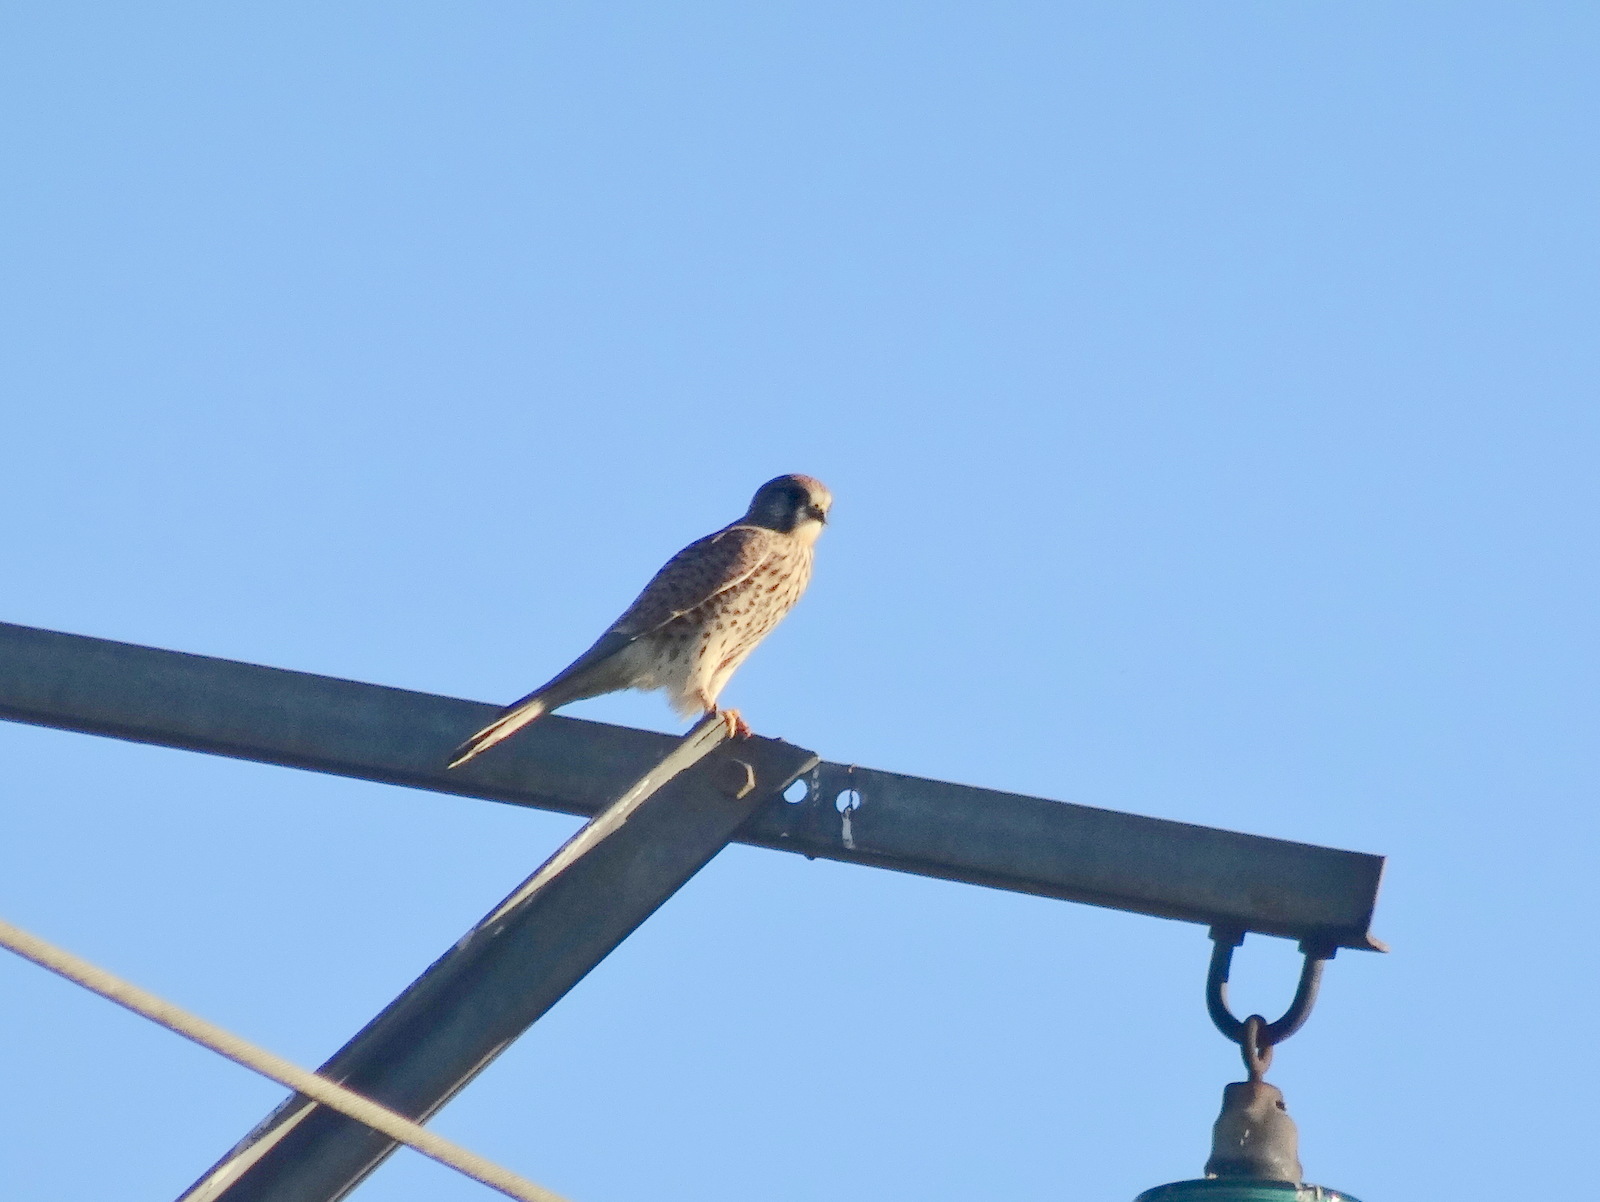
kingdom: Animalia
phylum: Chordata
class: Aves
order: Falconiformes
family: Falconidae
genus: Falco
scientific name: Falco tinnunculus
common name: Common kestrel
